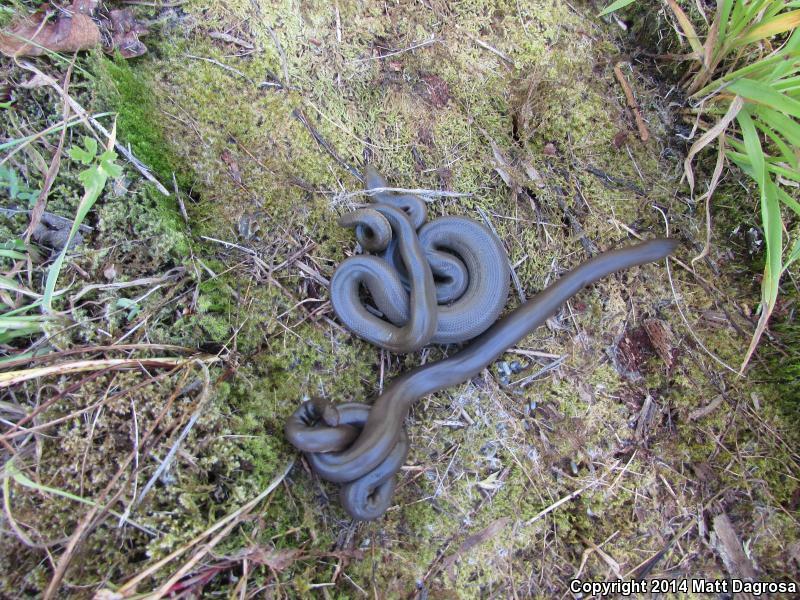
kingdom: Animalia
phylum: Chordata
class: Squamata
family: Boidae
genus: Charina
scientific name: Charina bottae
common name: Northern rubber boa
